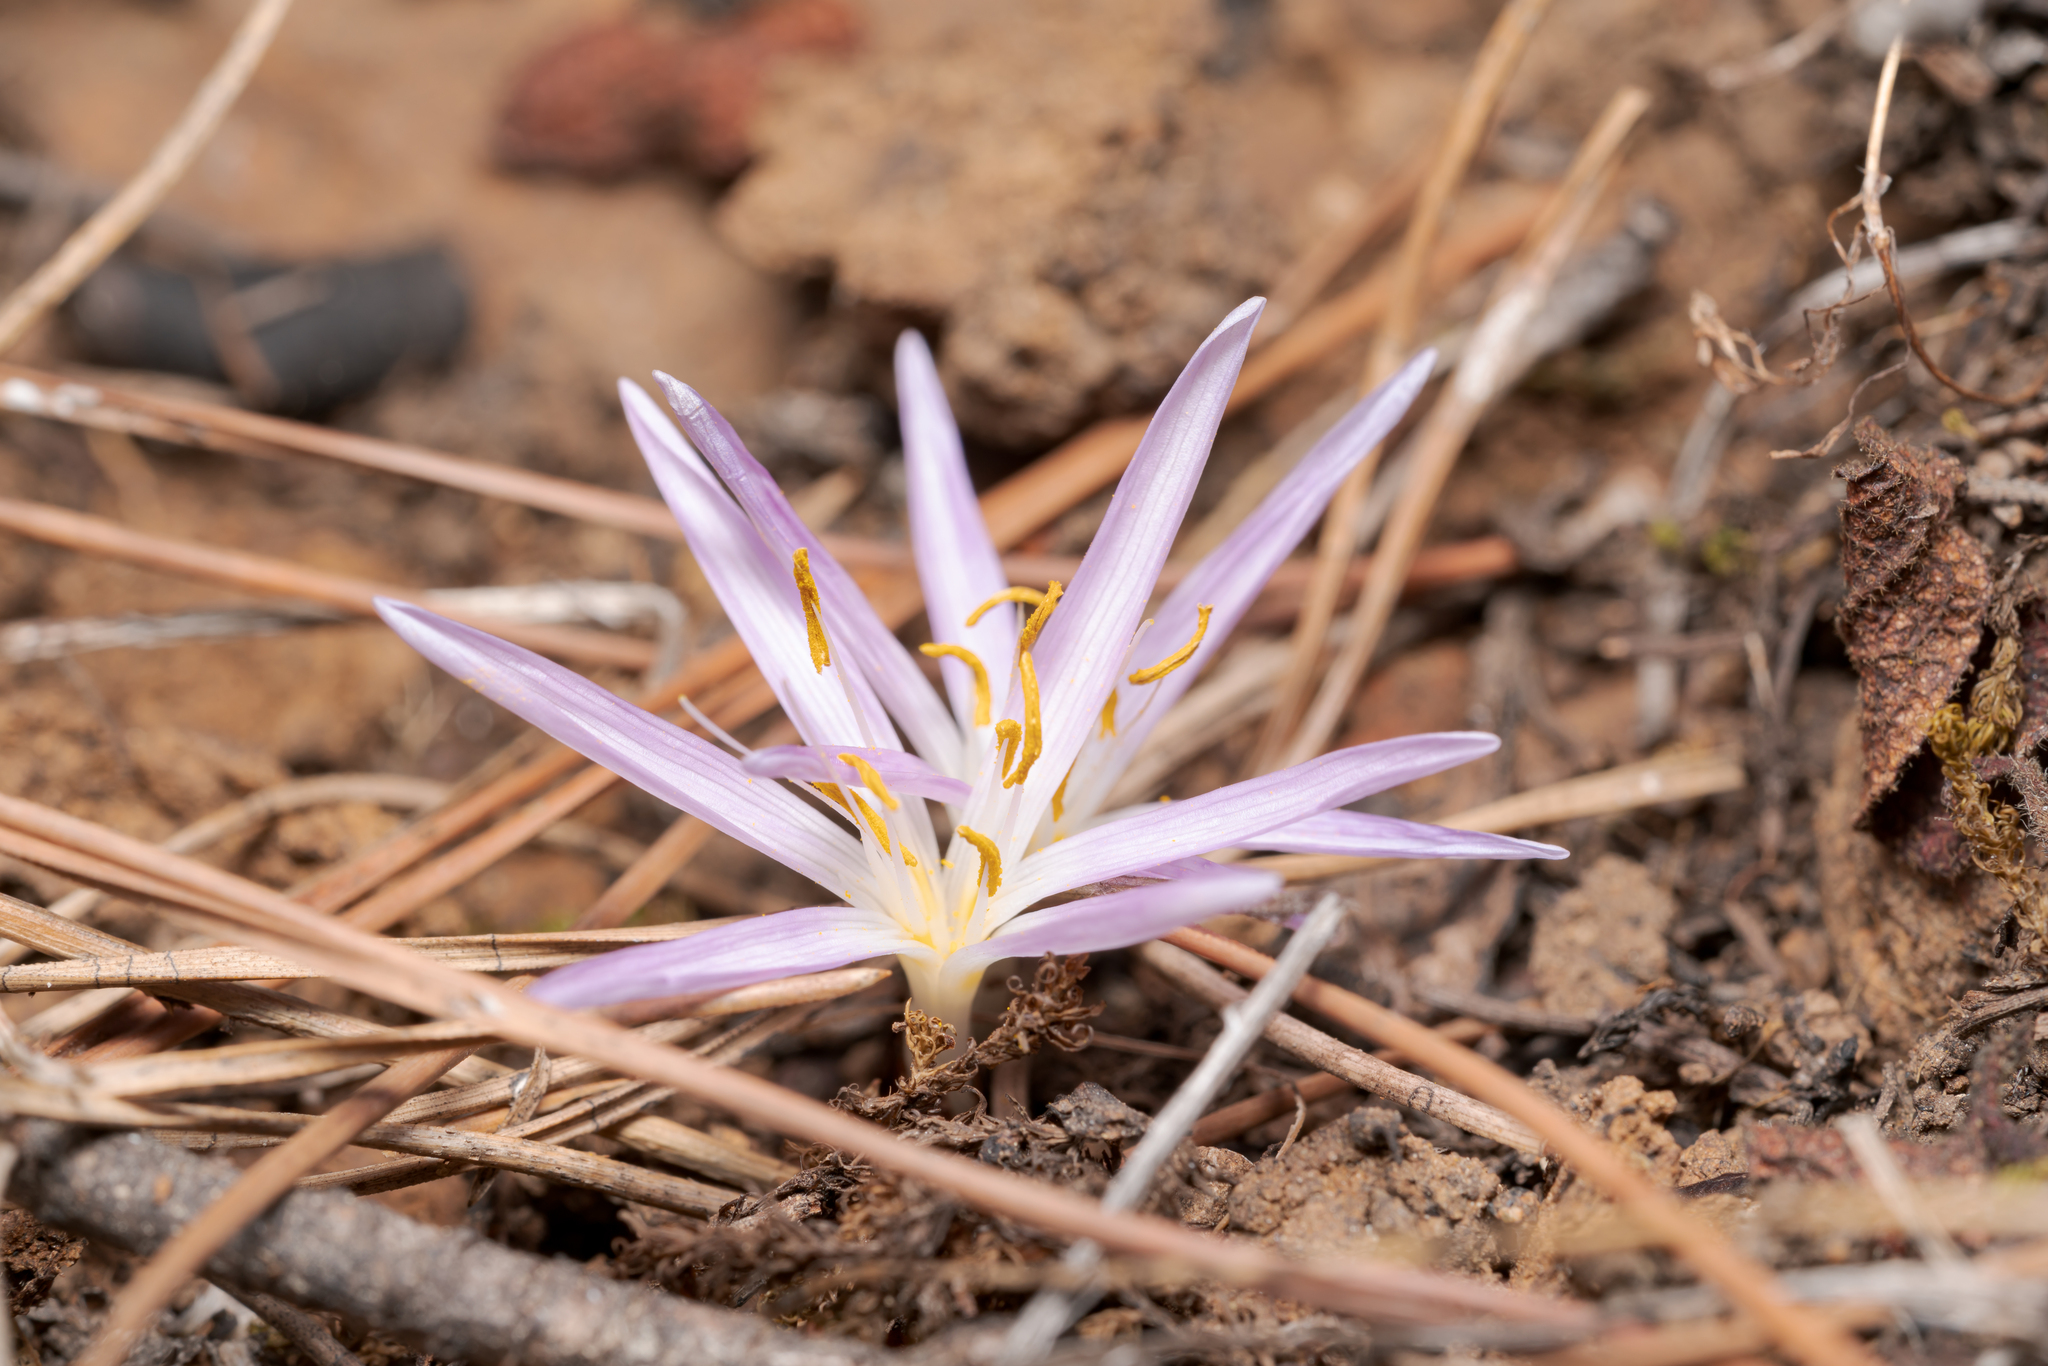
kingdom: Plantae
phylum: Tracheophyta
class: Liliopsida
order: Liliales
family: Colchicaceae
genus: Colchicum
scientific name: Colchicum pusillum
